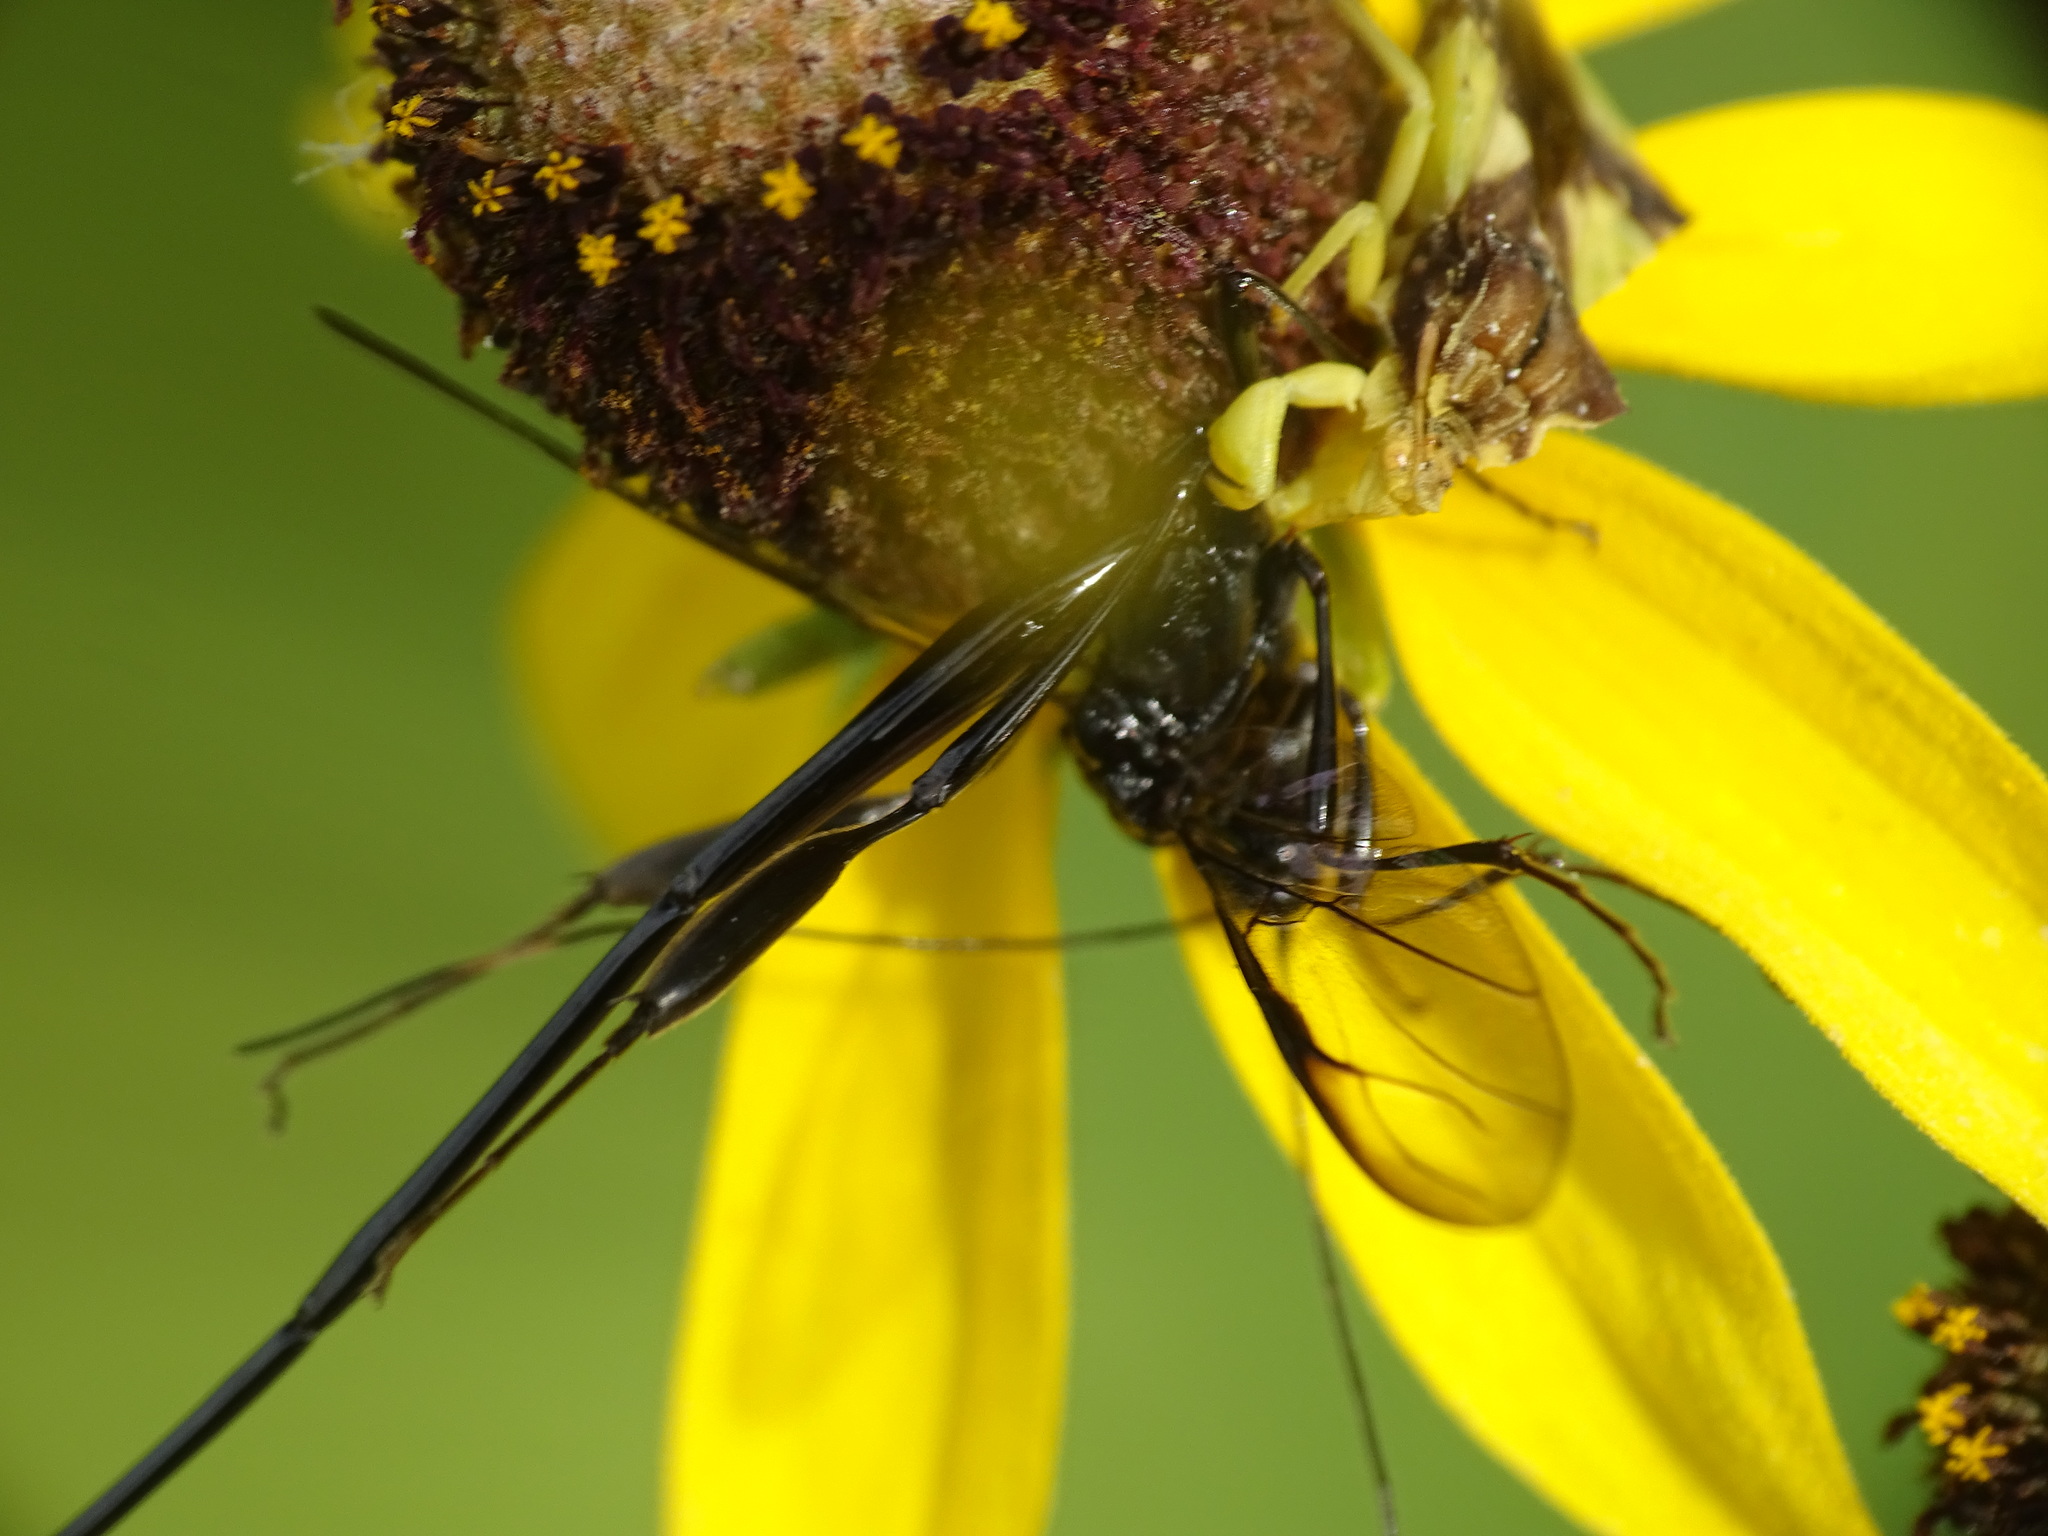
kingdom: Animalia
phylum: Arthropoda
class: Insecta
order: Hymenoptera
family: Pelecinidae
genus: Pelecinus
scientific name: Pelecinus polyturator
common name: American pelecinid wasp
